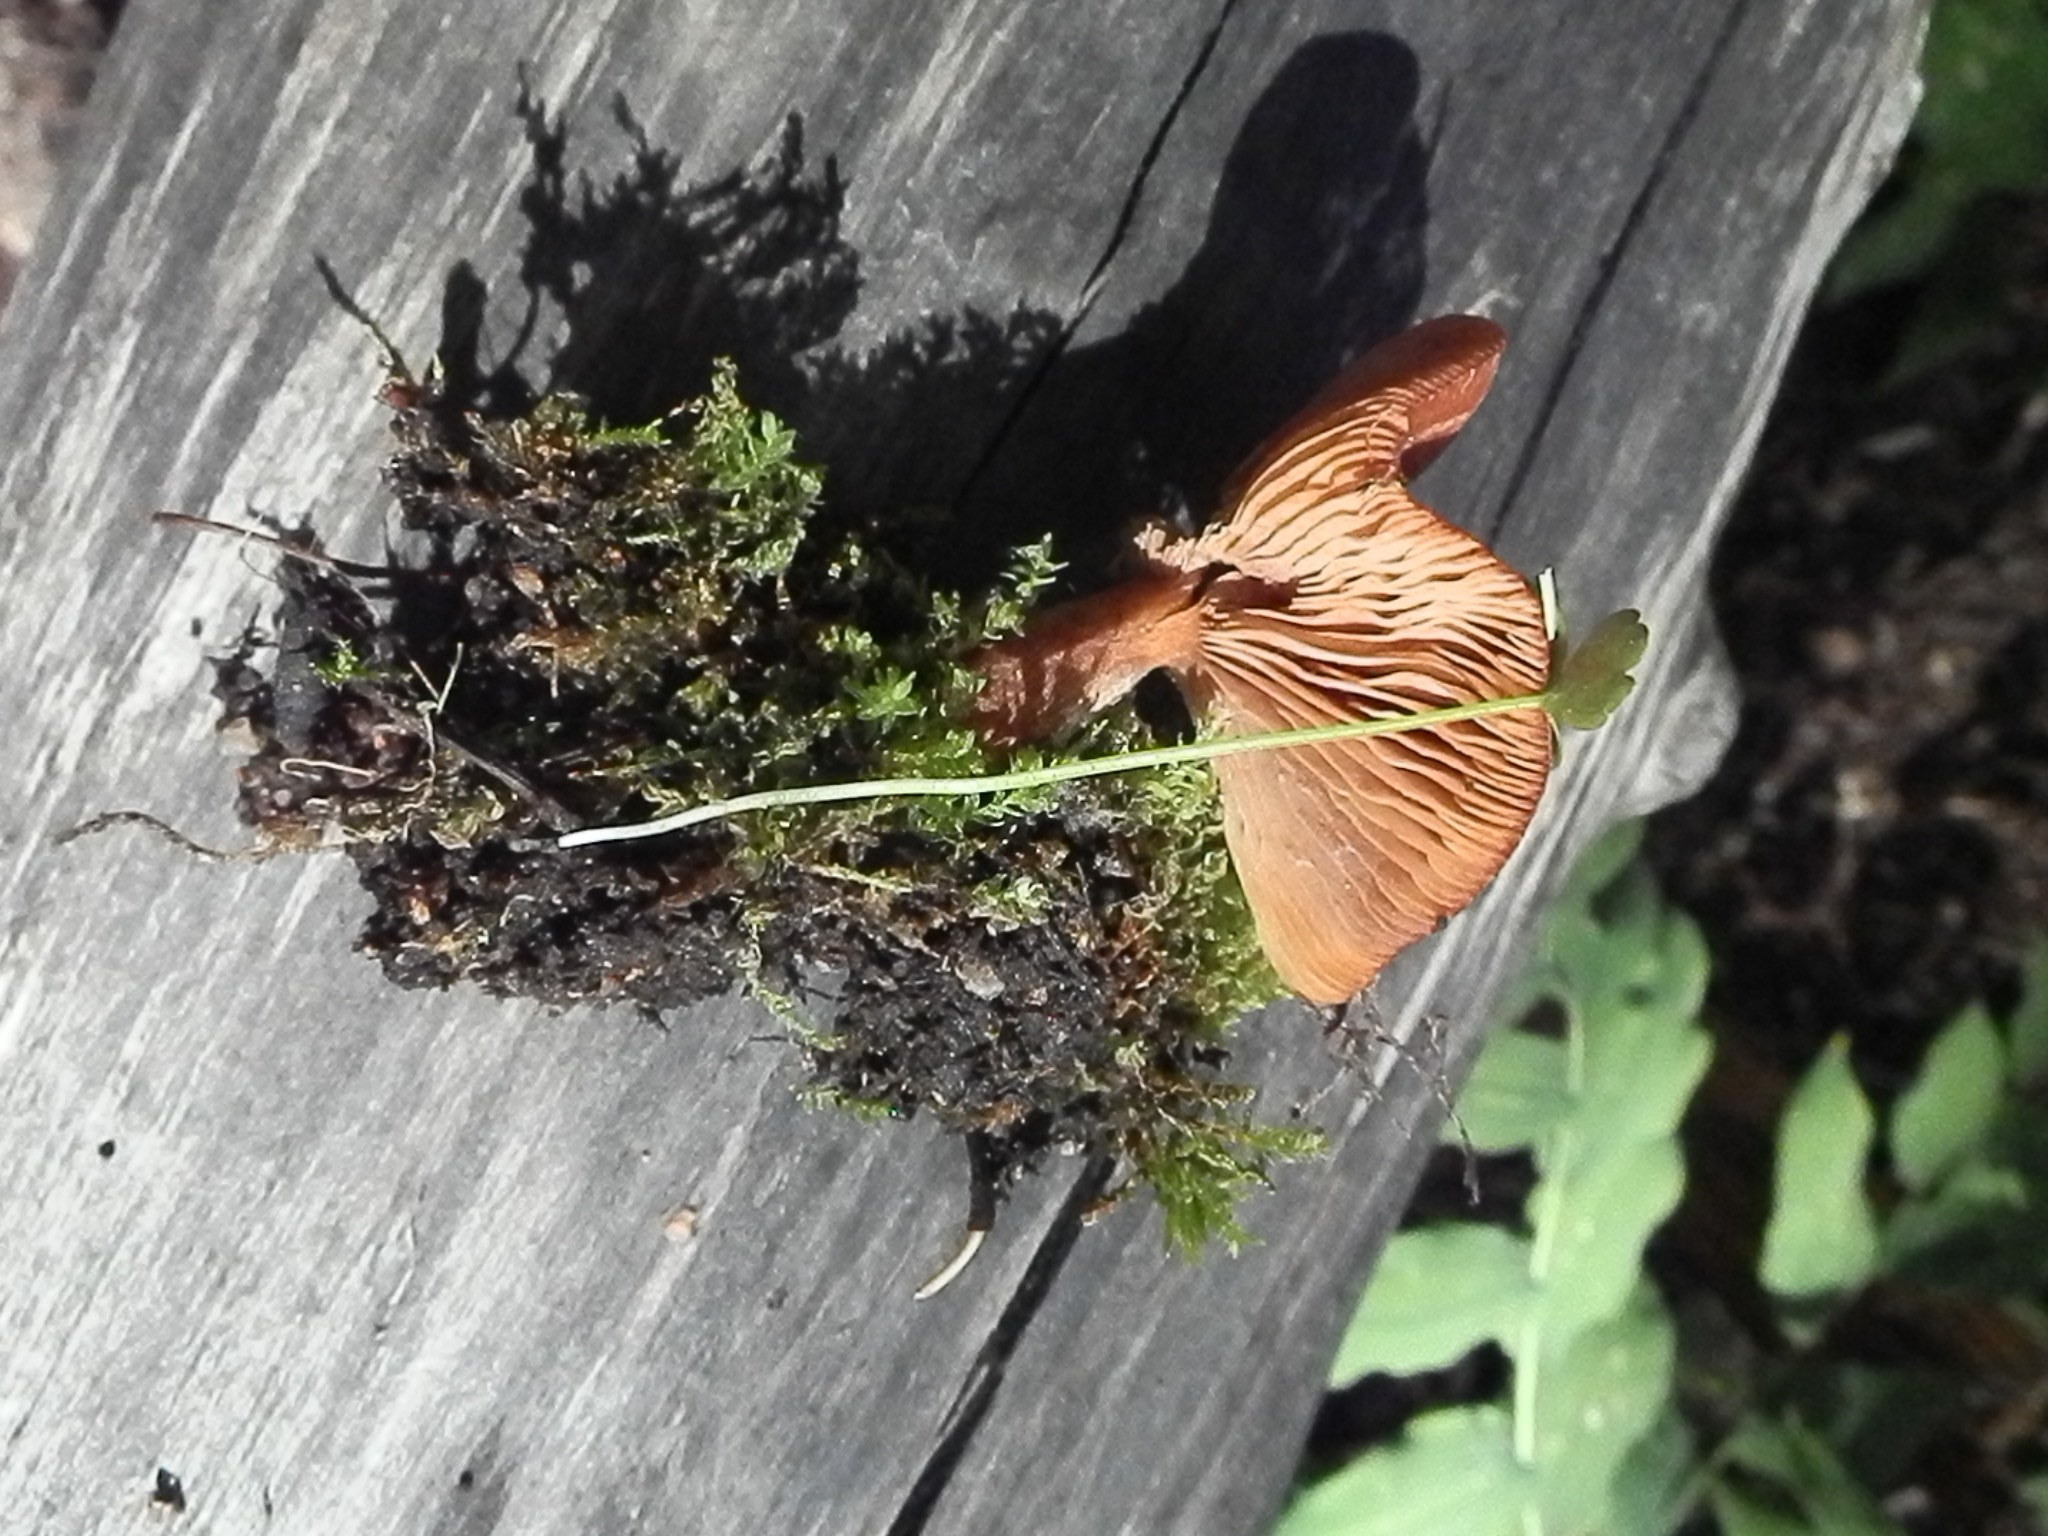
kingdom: Fungi
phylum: Basidiomycota
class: Agaricomycetes
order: Russulales
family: Russulaceae
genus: Lactarius
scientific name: Lactarius badiosanguineus
